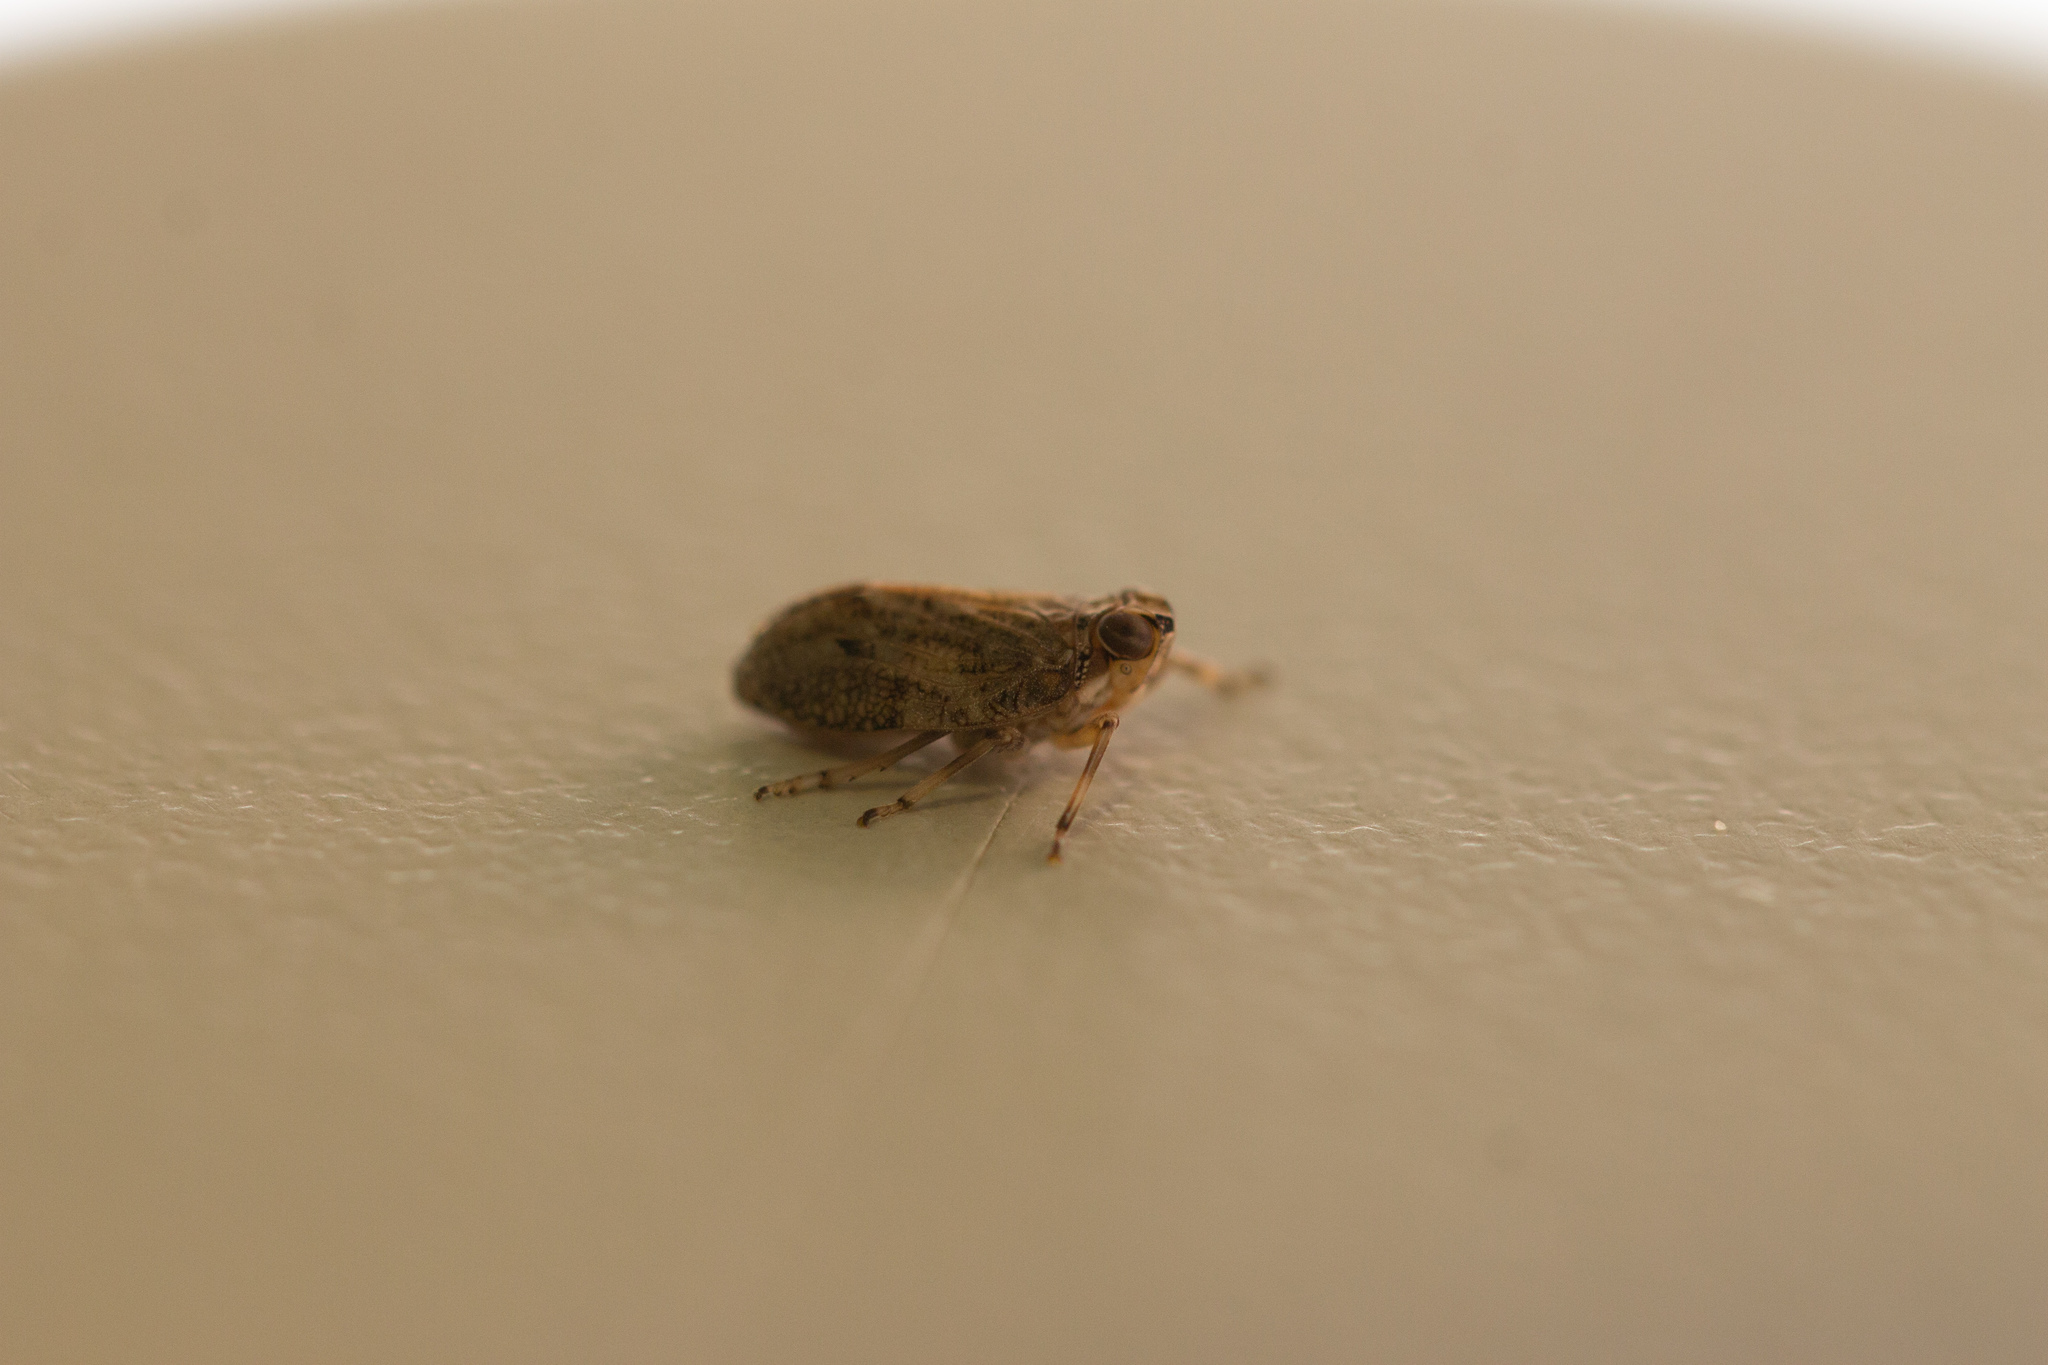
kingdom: Animalia
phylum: Arthropoda
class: Insecta
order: Hemiptera
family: Issidae
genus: Issus
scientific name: Issus coleoptratus
